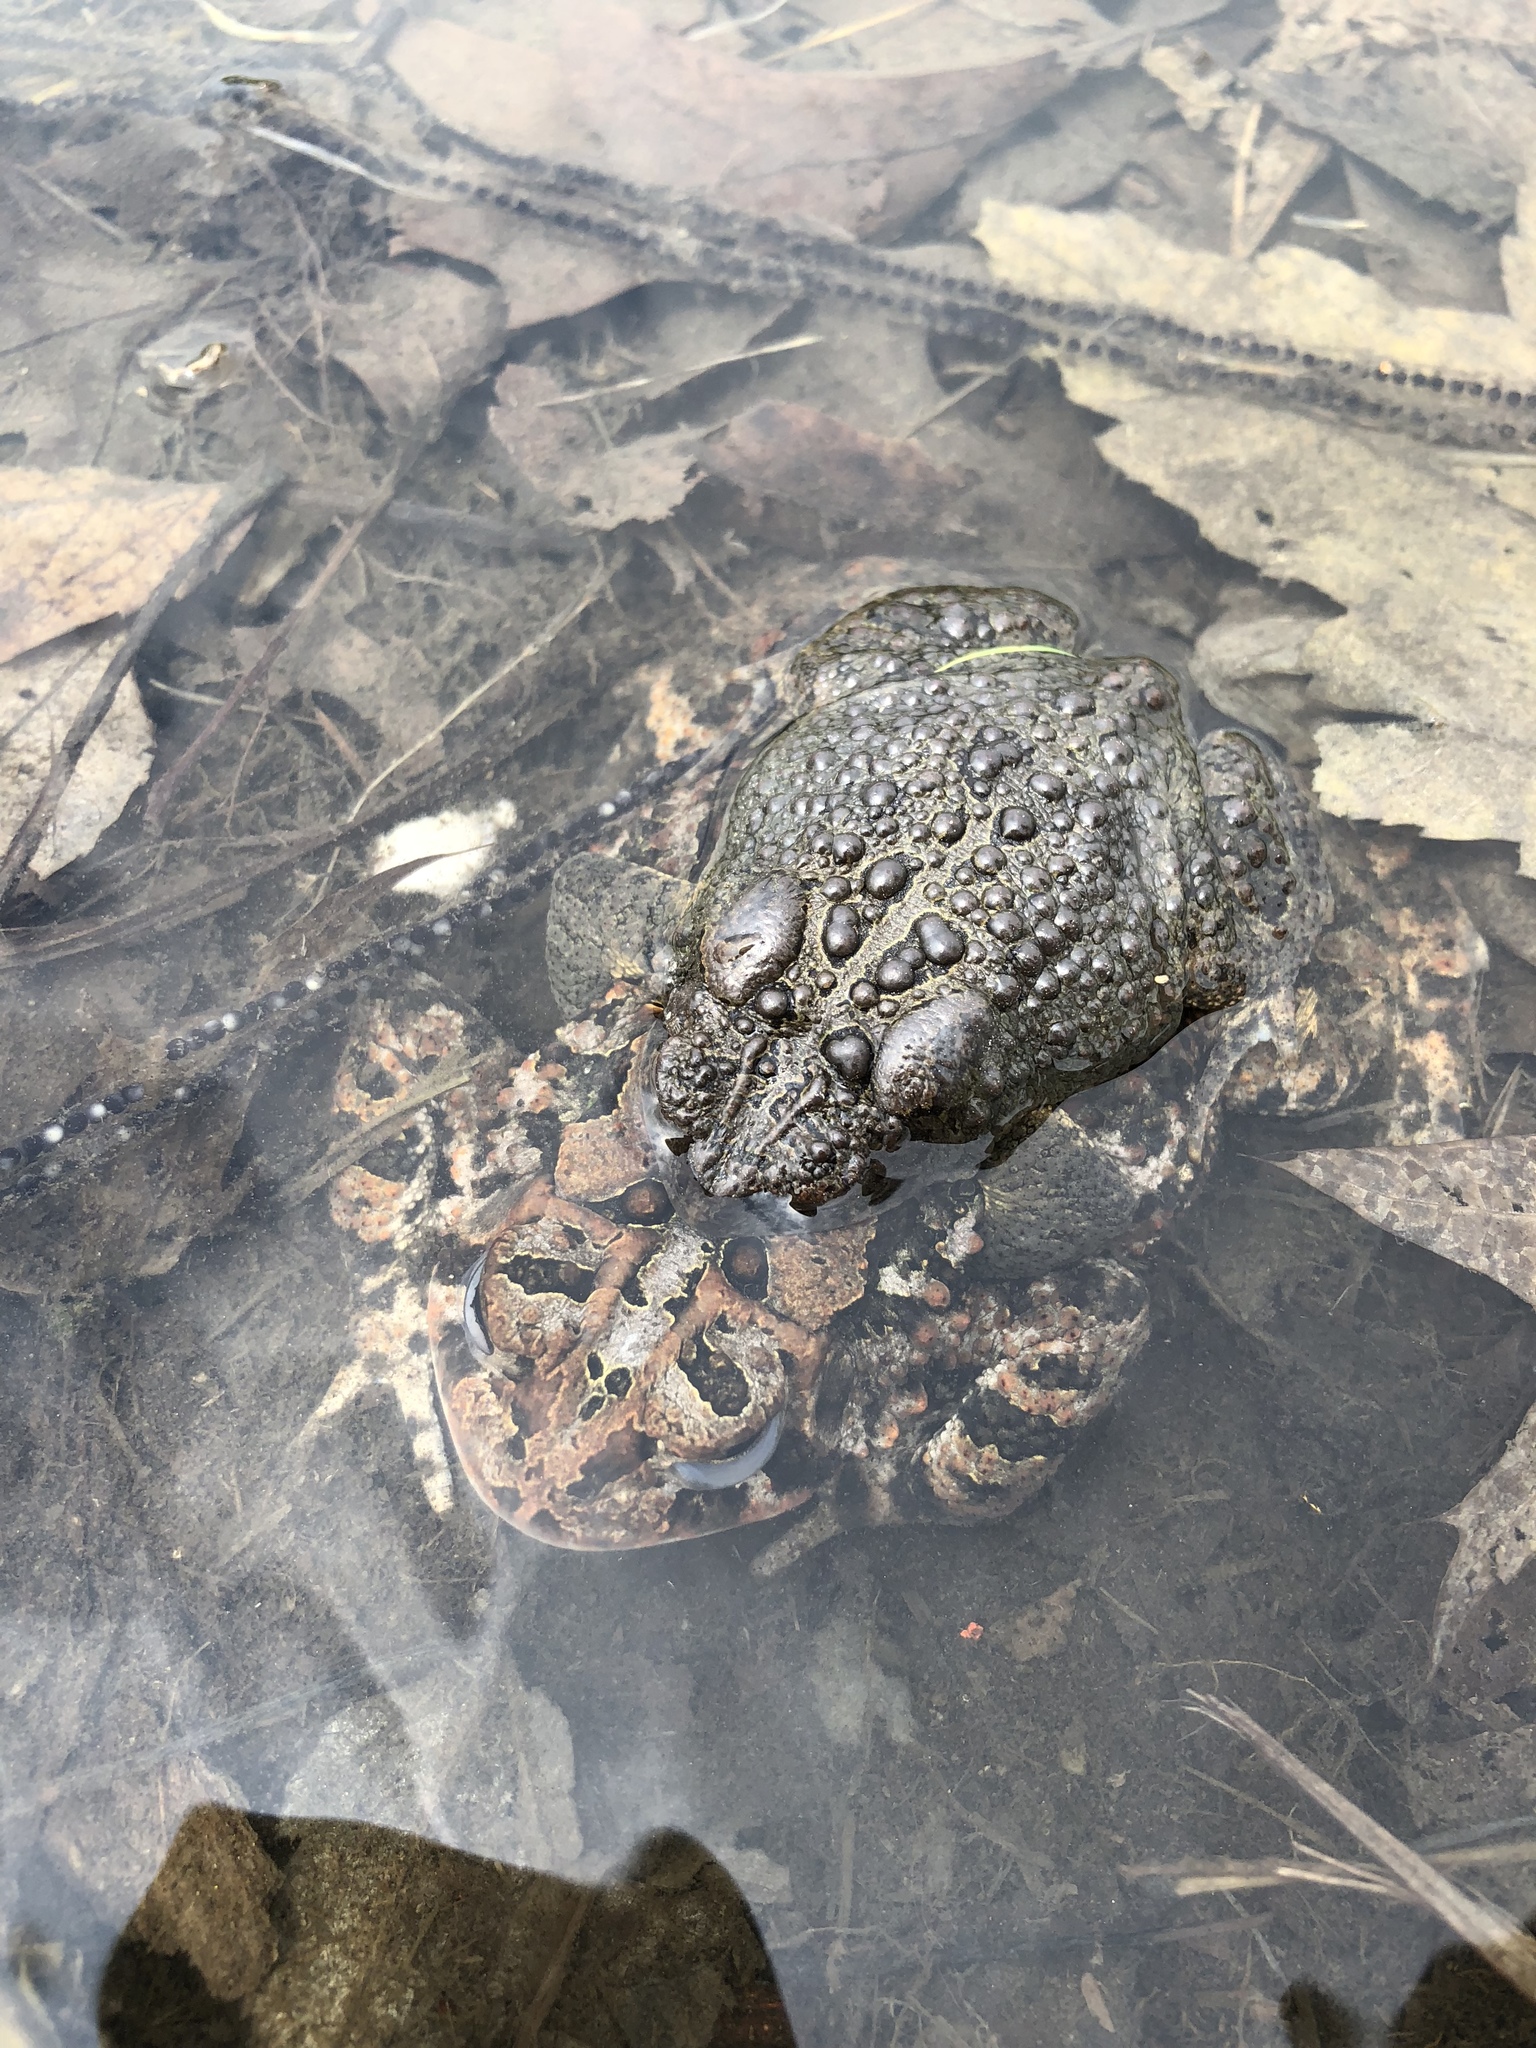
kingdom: Animalia
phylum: Chordata
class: Amphibia
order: Anura
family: Bufonidae
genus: Anaxyrus
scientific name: Anaxyrus americanus
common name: American toad
